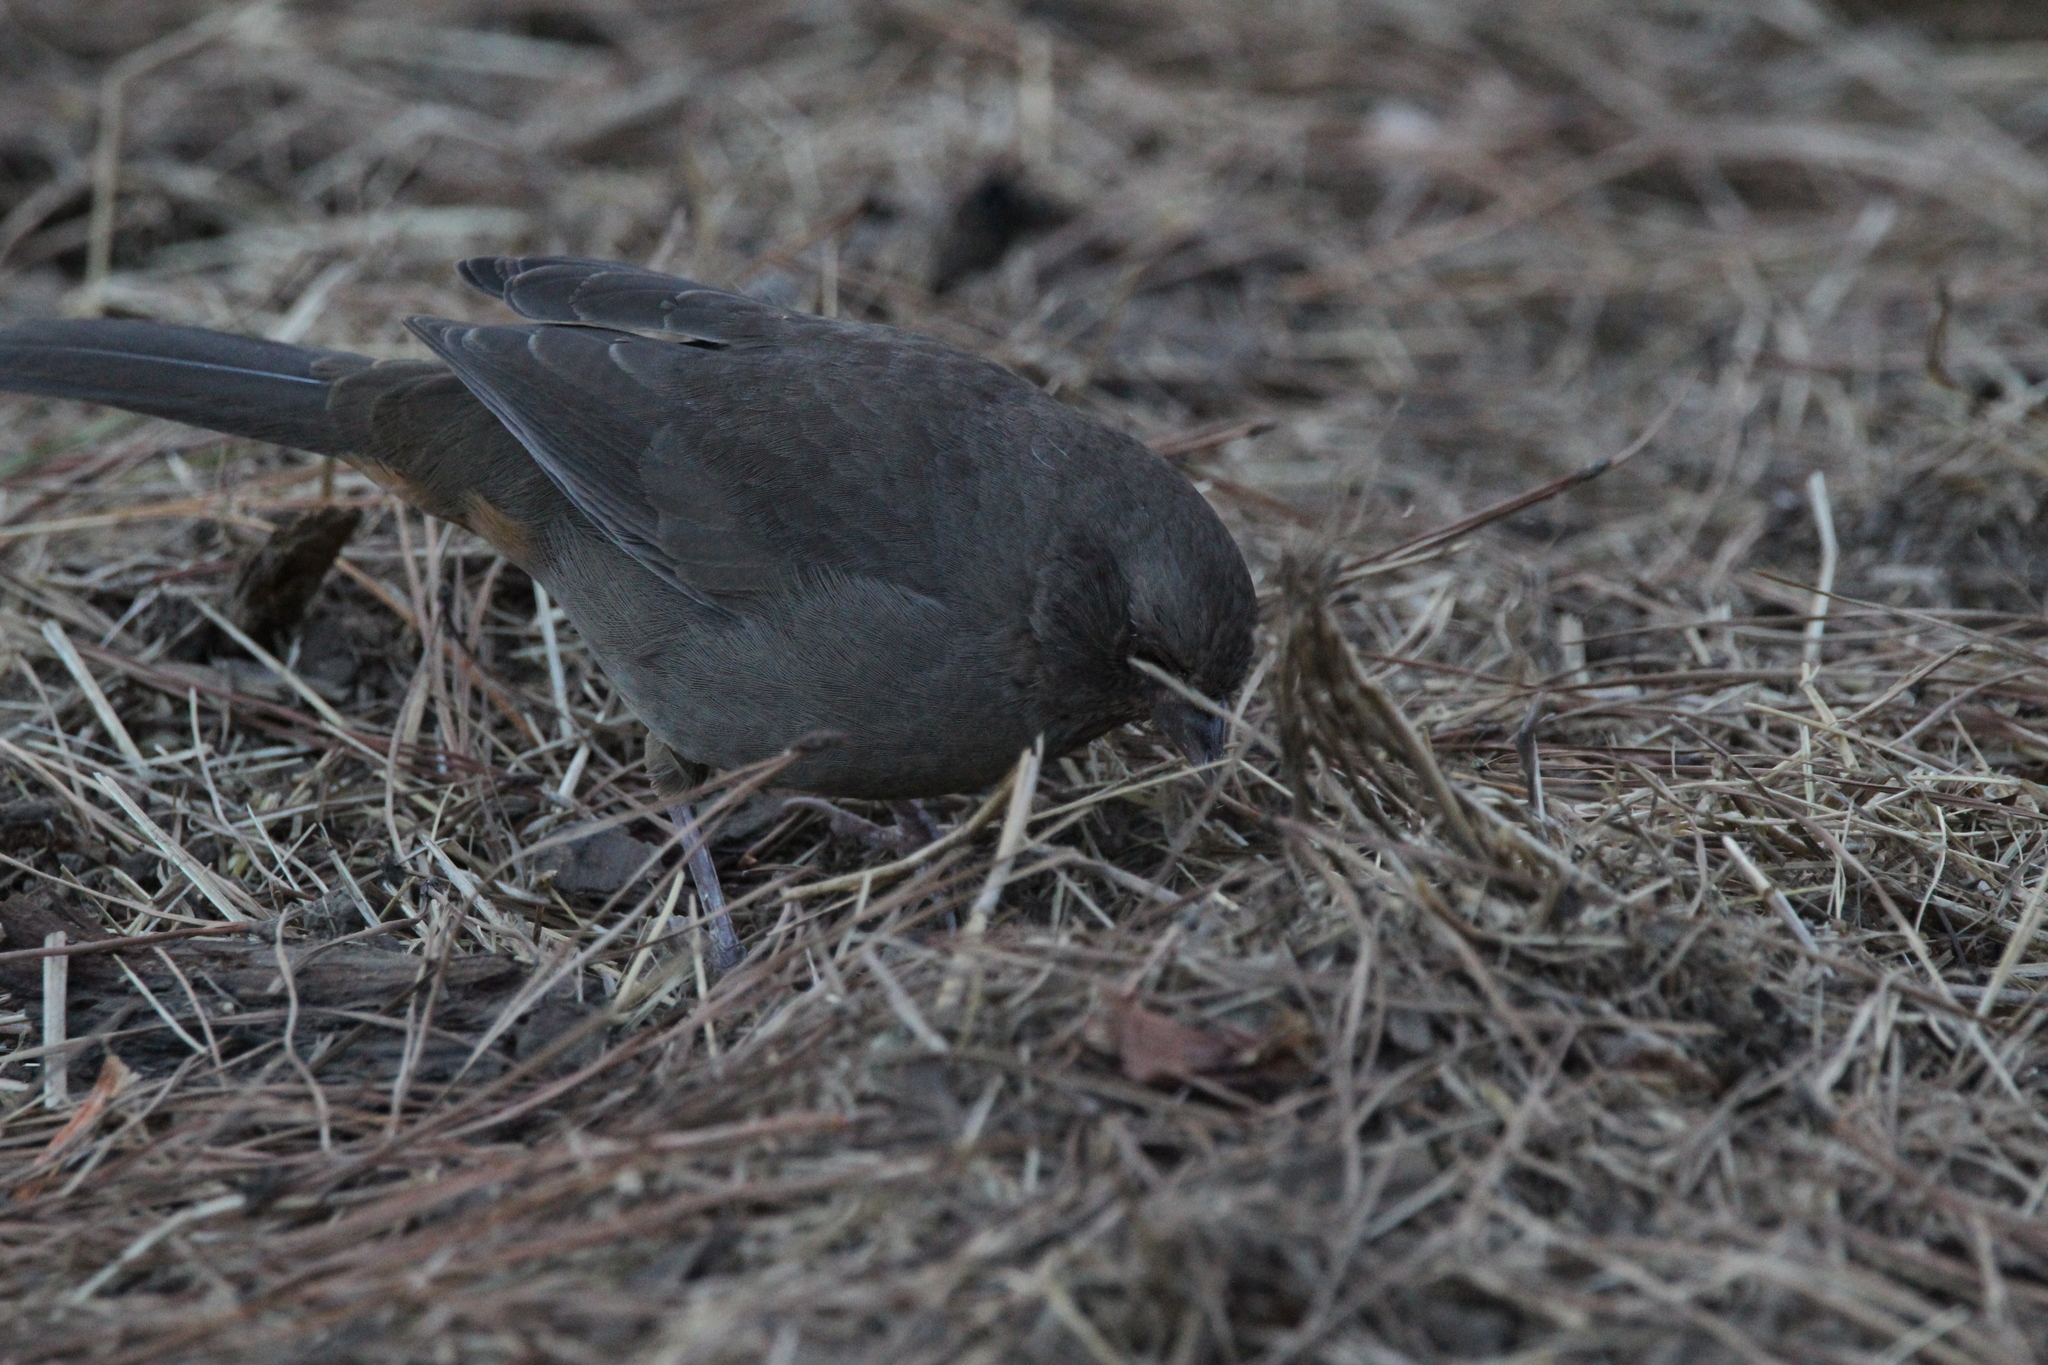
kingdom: Animalia
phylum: Chordata
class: Aves
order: Passeriformes
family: Passerellidae
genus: Melozone
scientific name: Melozone crissalis
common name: California towhee
